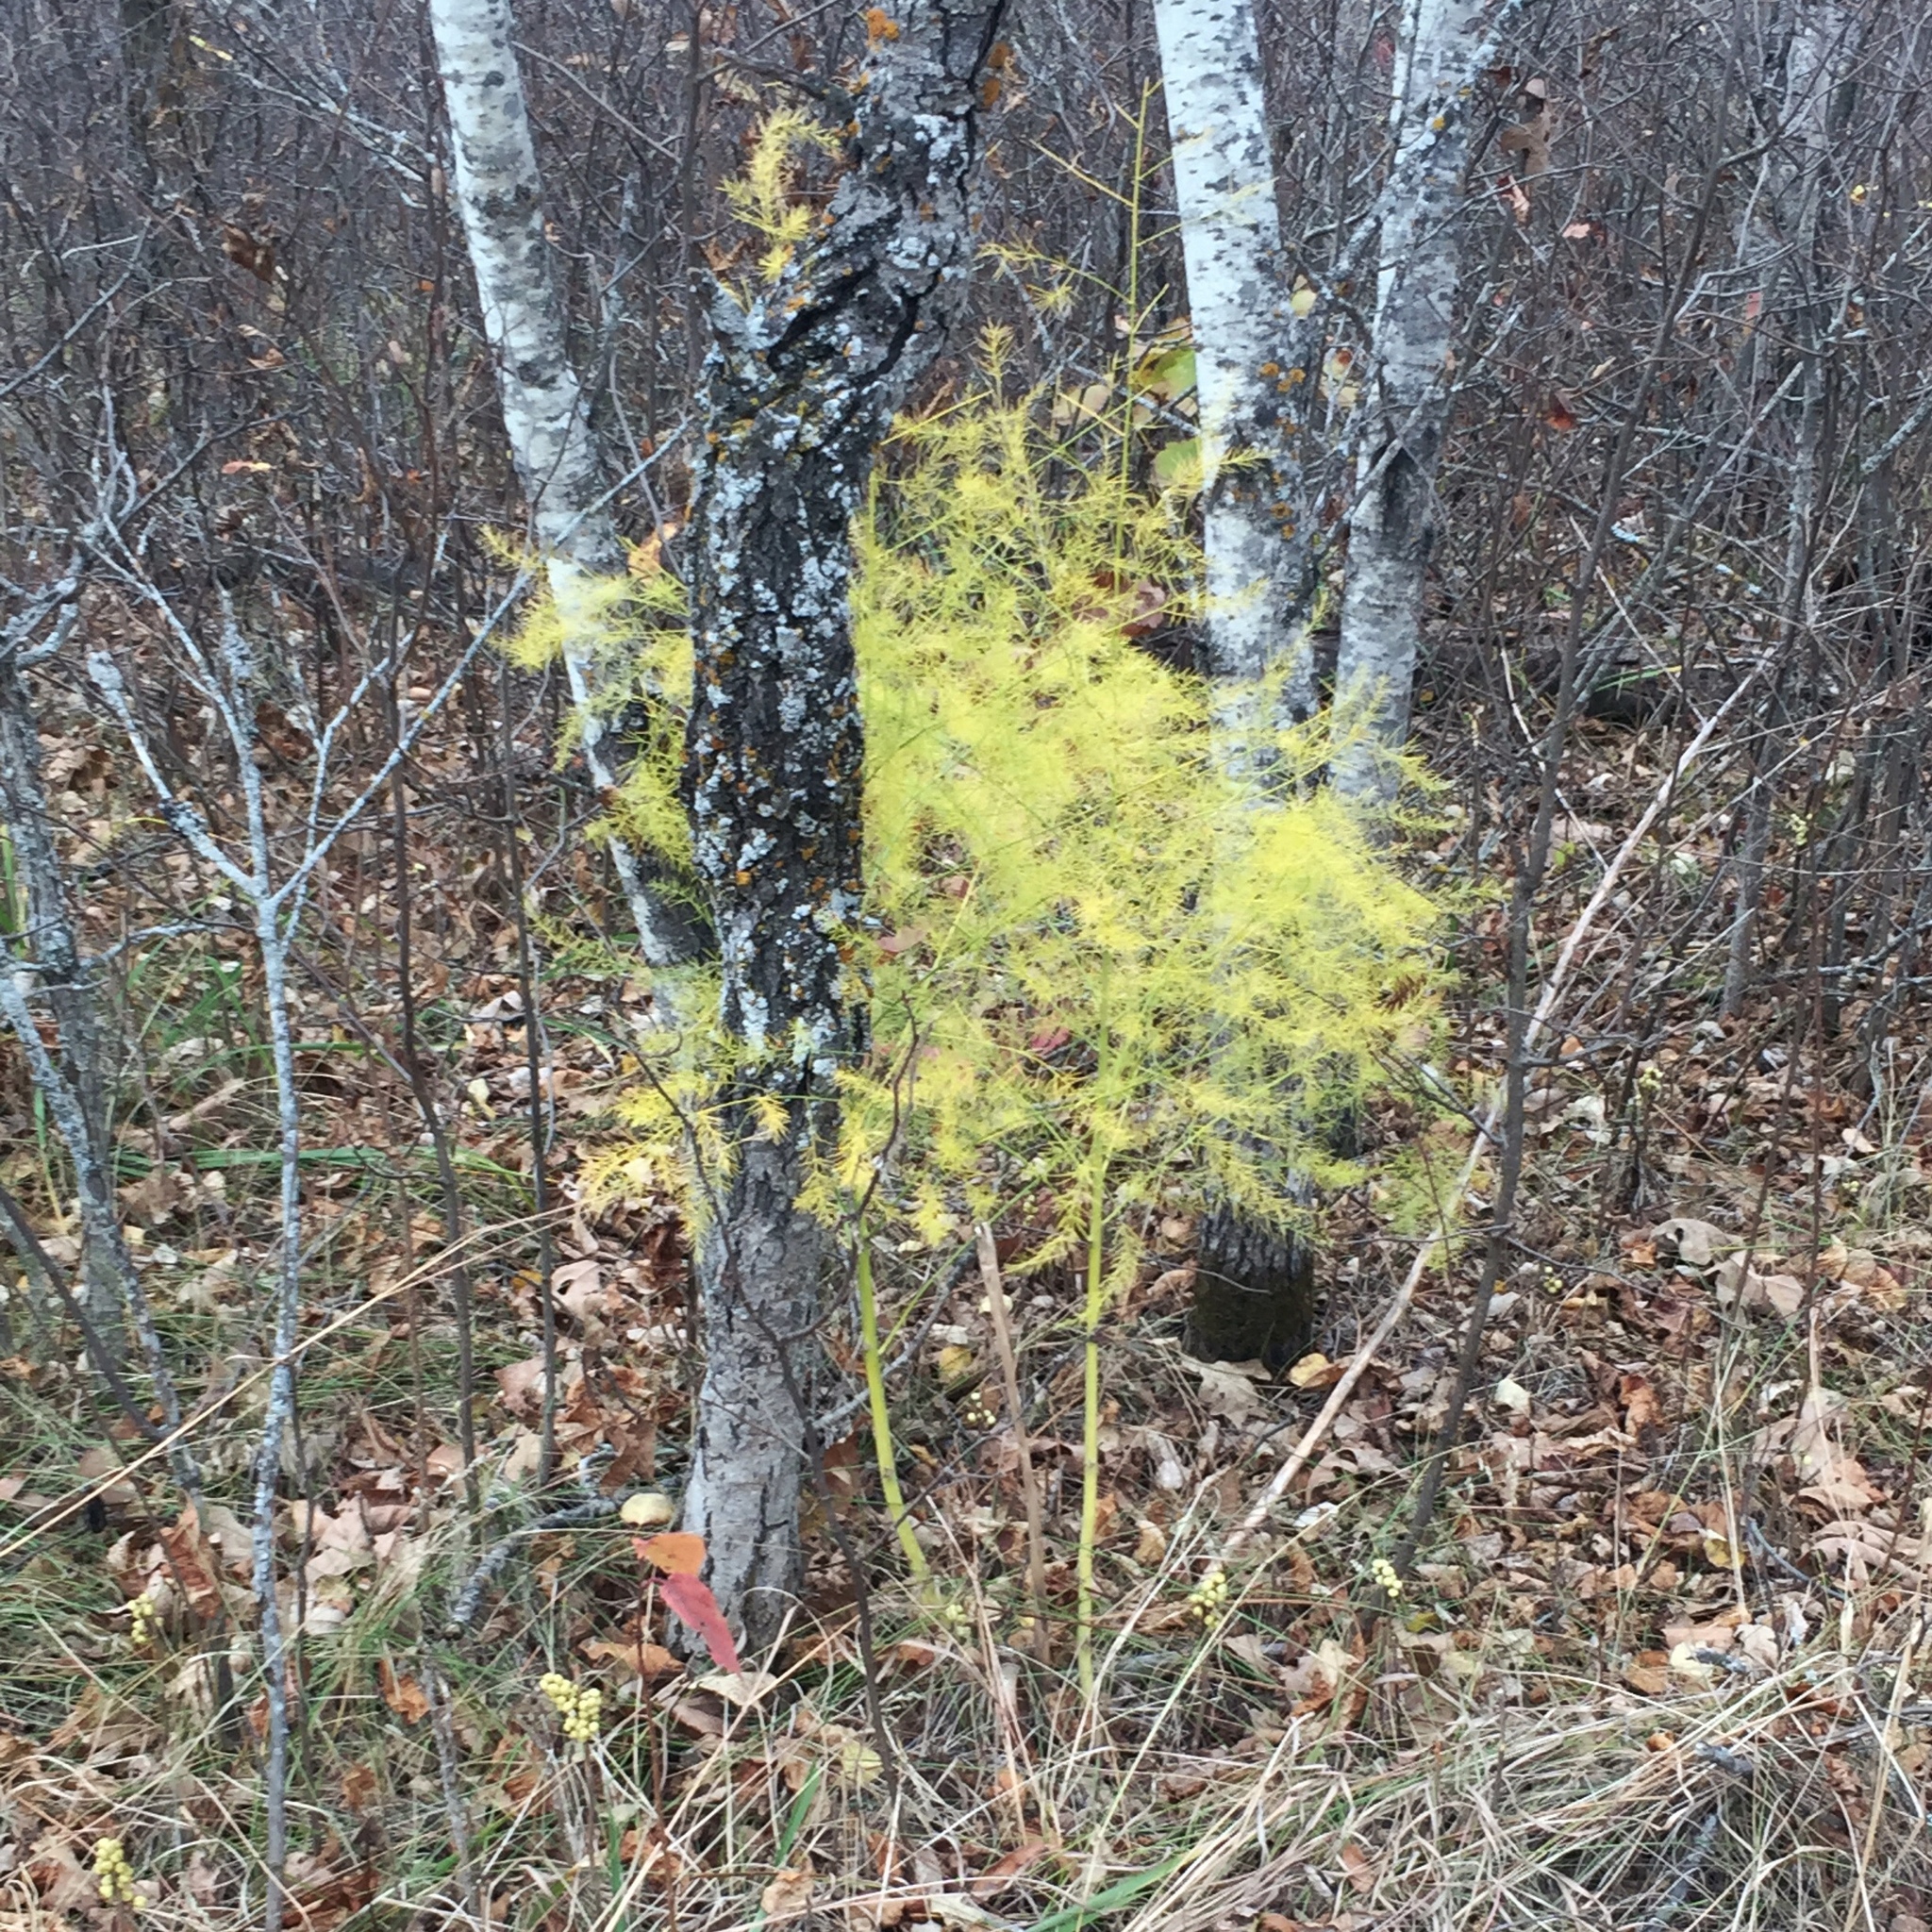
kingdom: Plantae
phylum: Tracheophyta
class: Liliopsida
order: Asparagales
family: Asparagaceae
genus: Asparagus
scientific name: Asparagus officinalis
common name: Garden asparagus
